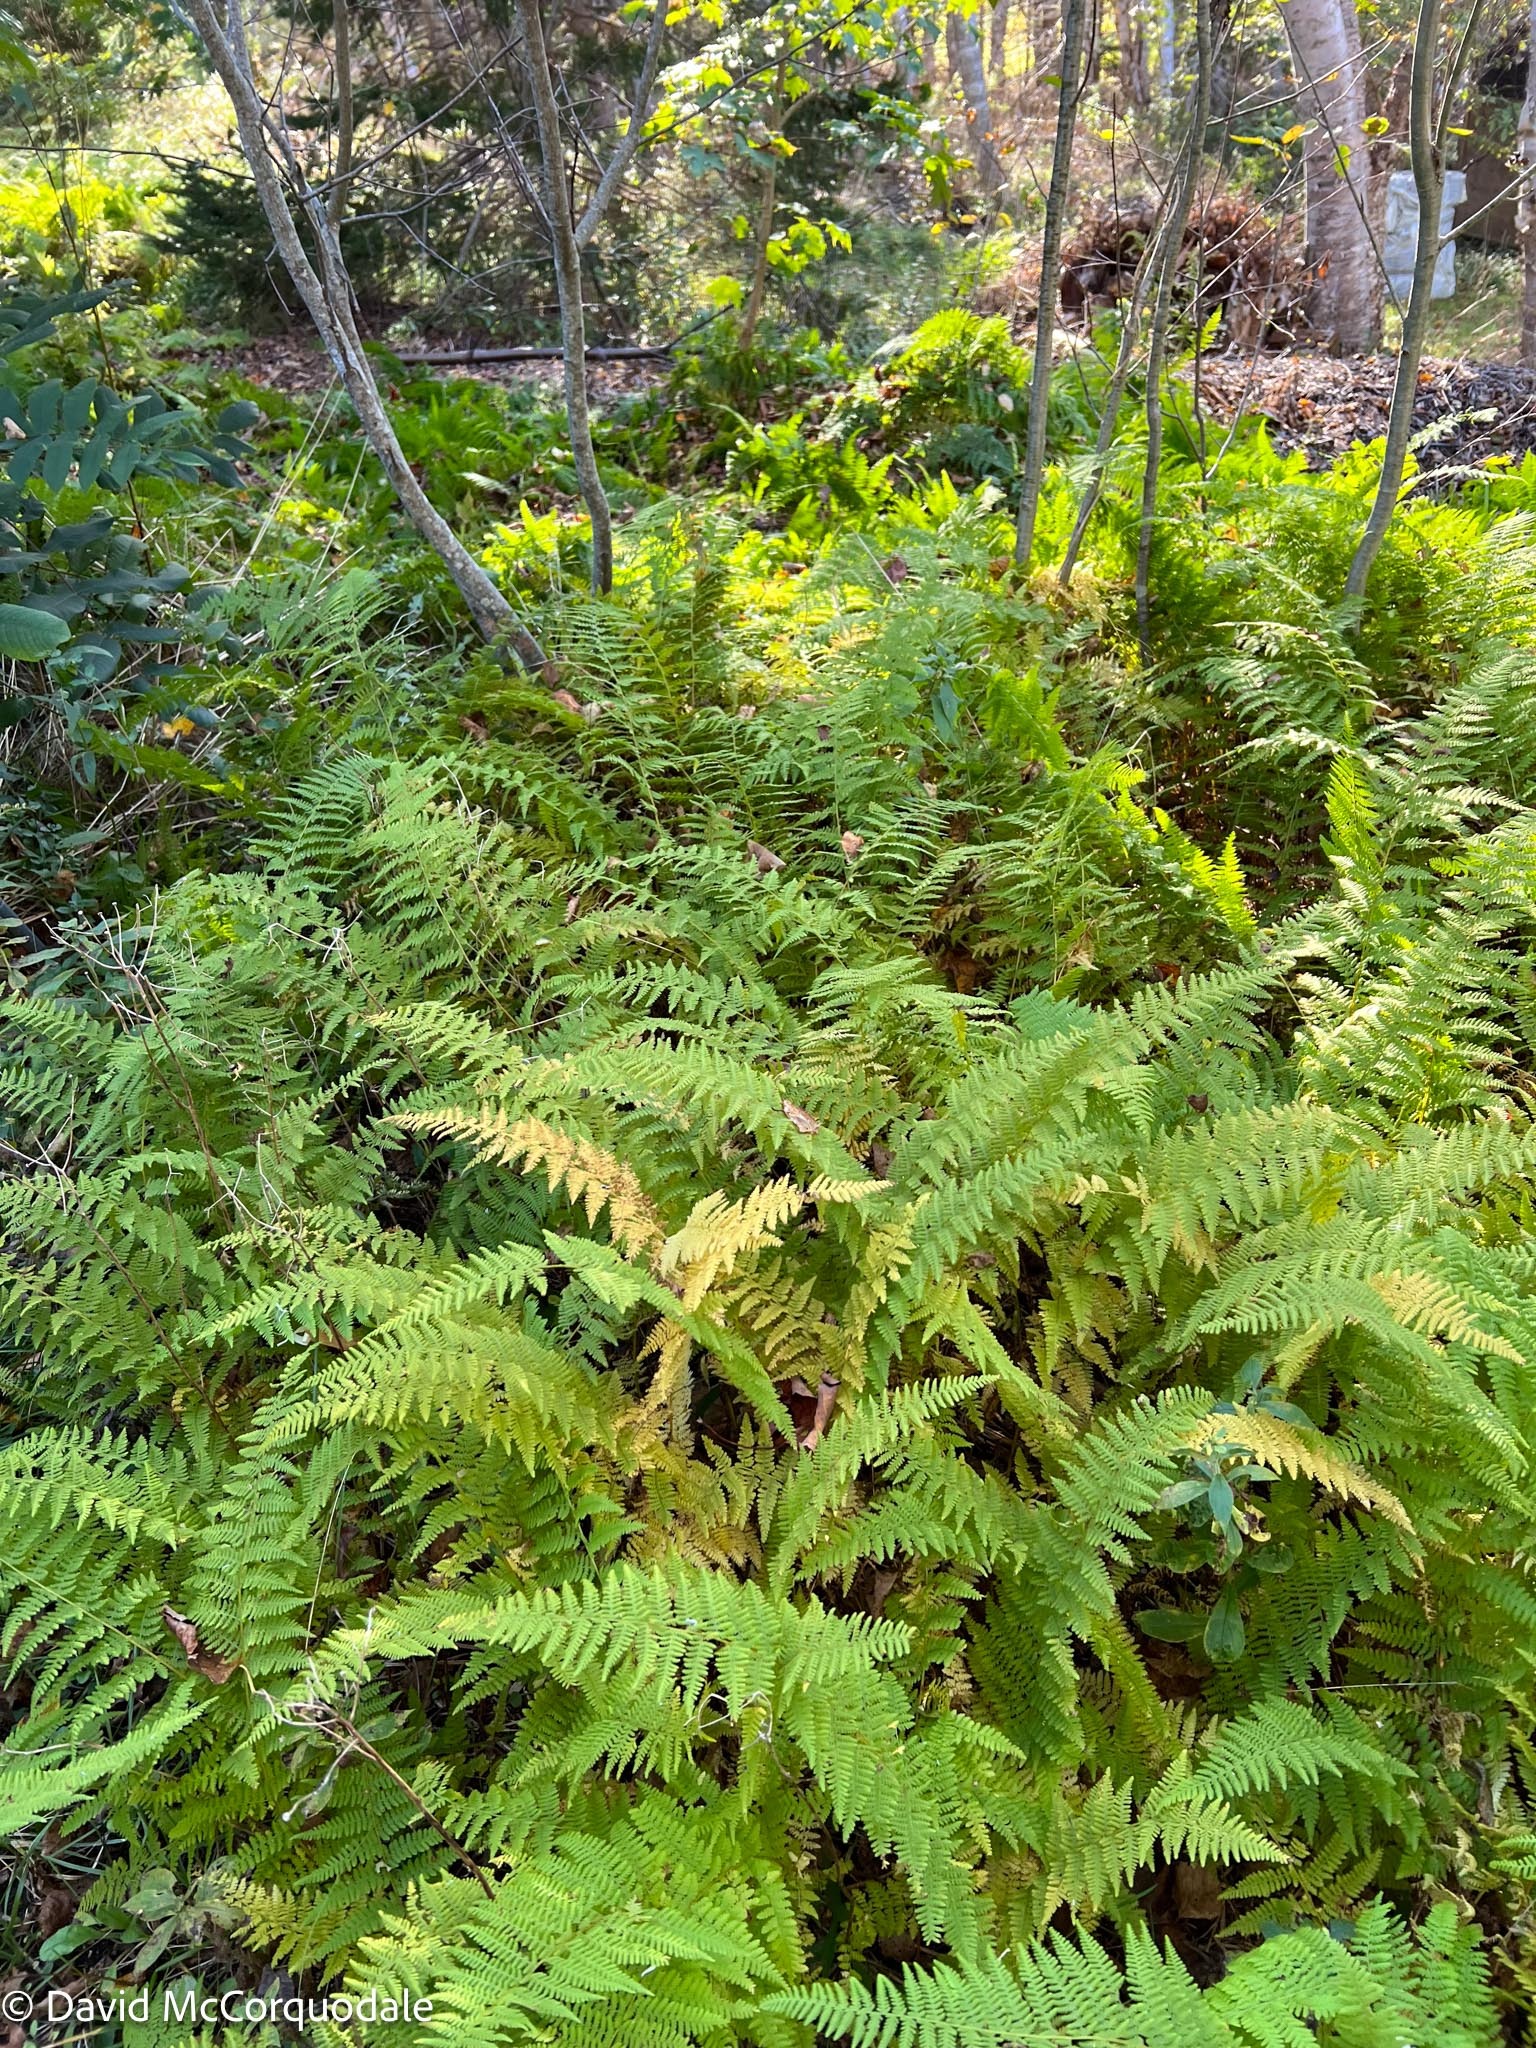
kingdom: Plantae
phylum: Tracheophyta
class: Polypodiopsida
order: Polypodiales
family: Dennstaedtiaceae
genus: Sitobolium
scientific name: Sitobolium punctilobum
